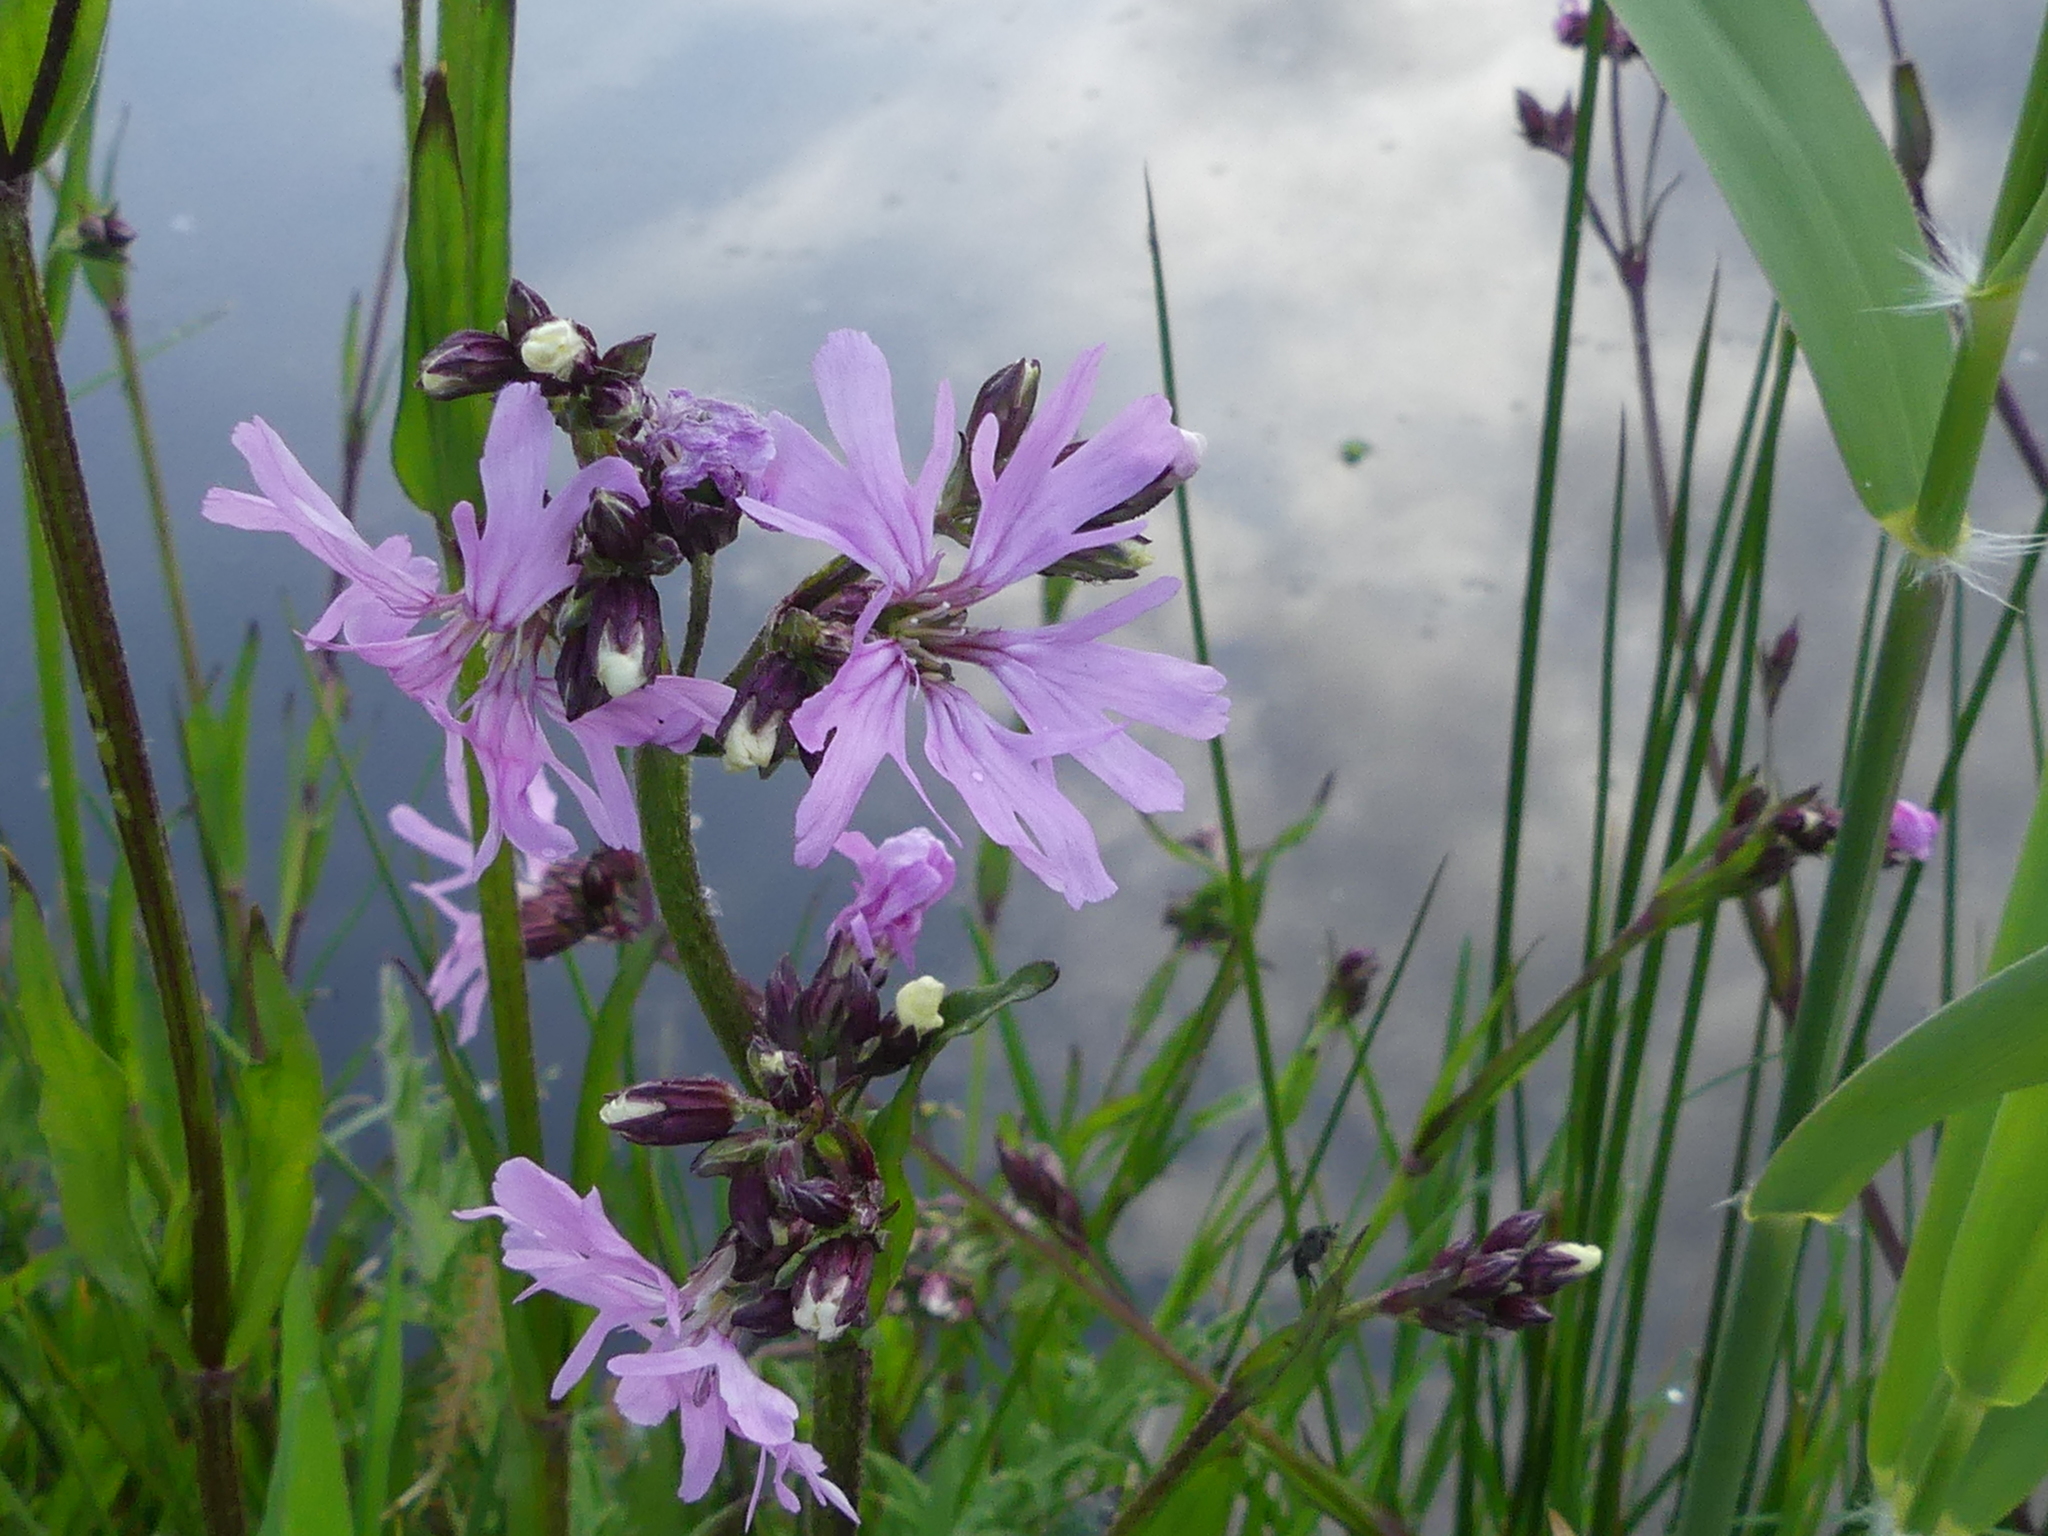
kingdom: Plantae
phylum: Tracheophyta
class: Magnoliopsida
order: Caryophyllales
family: Caryophyllaceae
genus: Silene
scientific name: Silene flos-cuculi
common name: Ragged-robin
